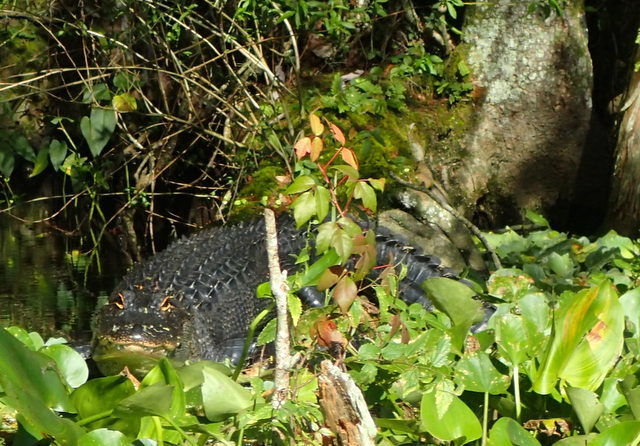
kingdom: Animalia
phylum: Chordata
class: Crocodylia
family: Alligatoridae
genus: Alligator
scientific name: Alligator mississippiensis
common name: American alligator
